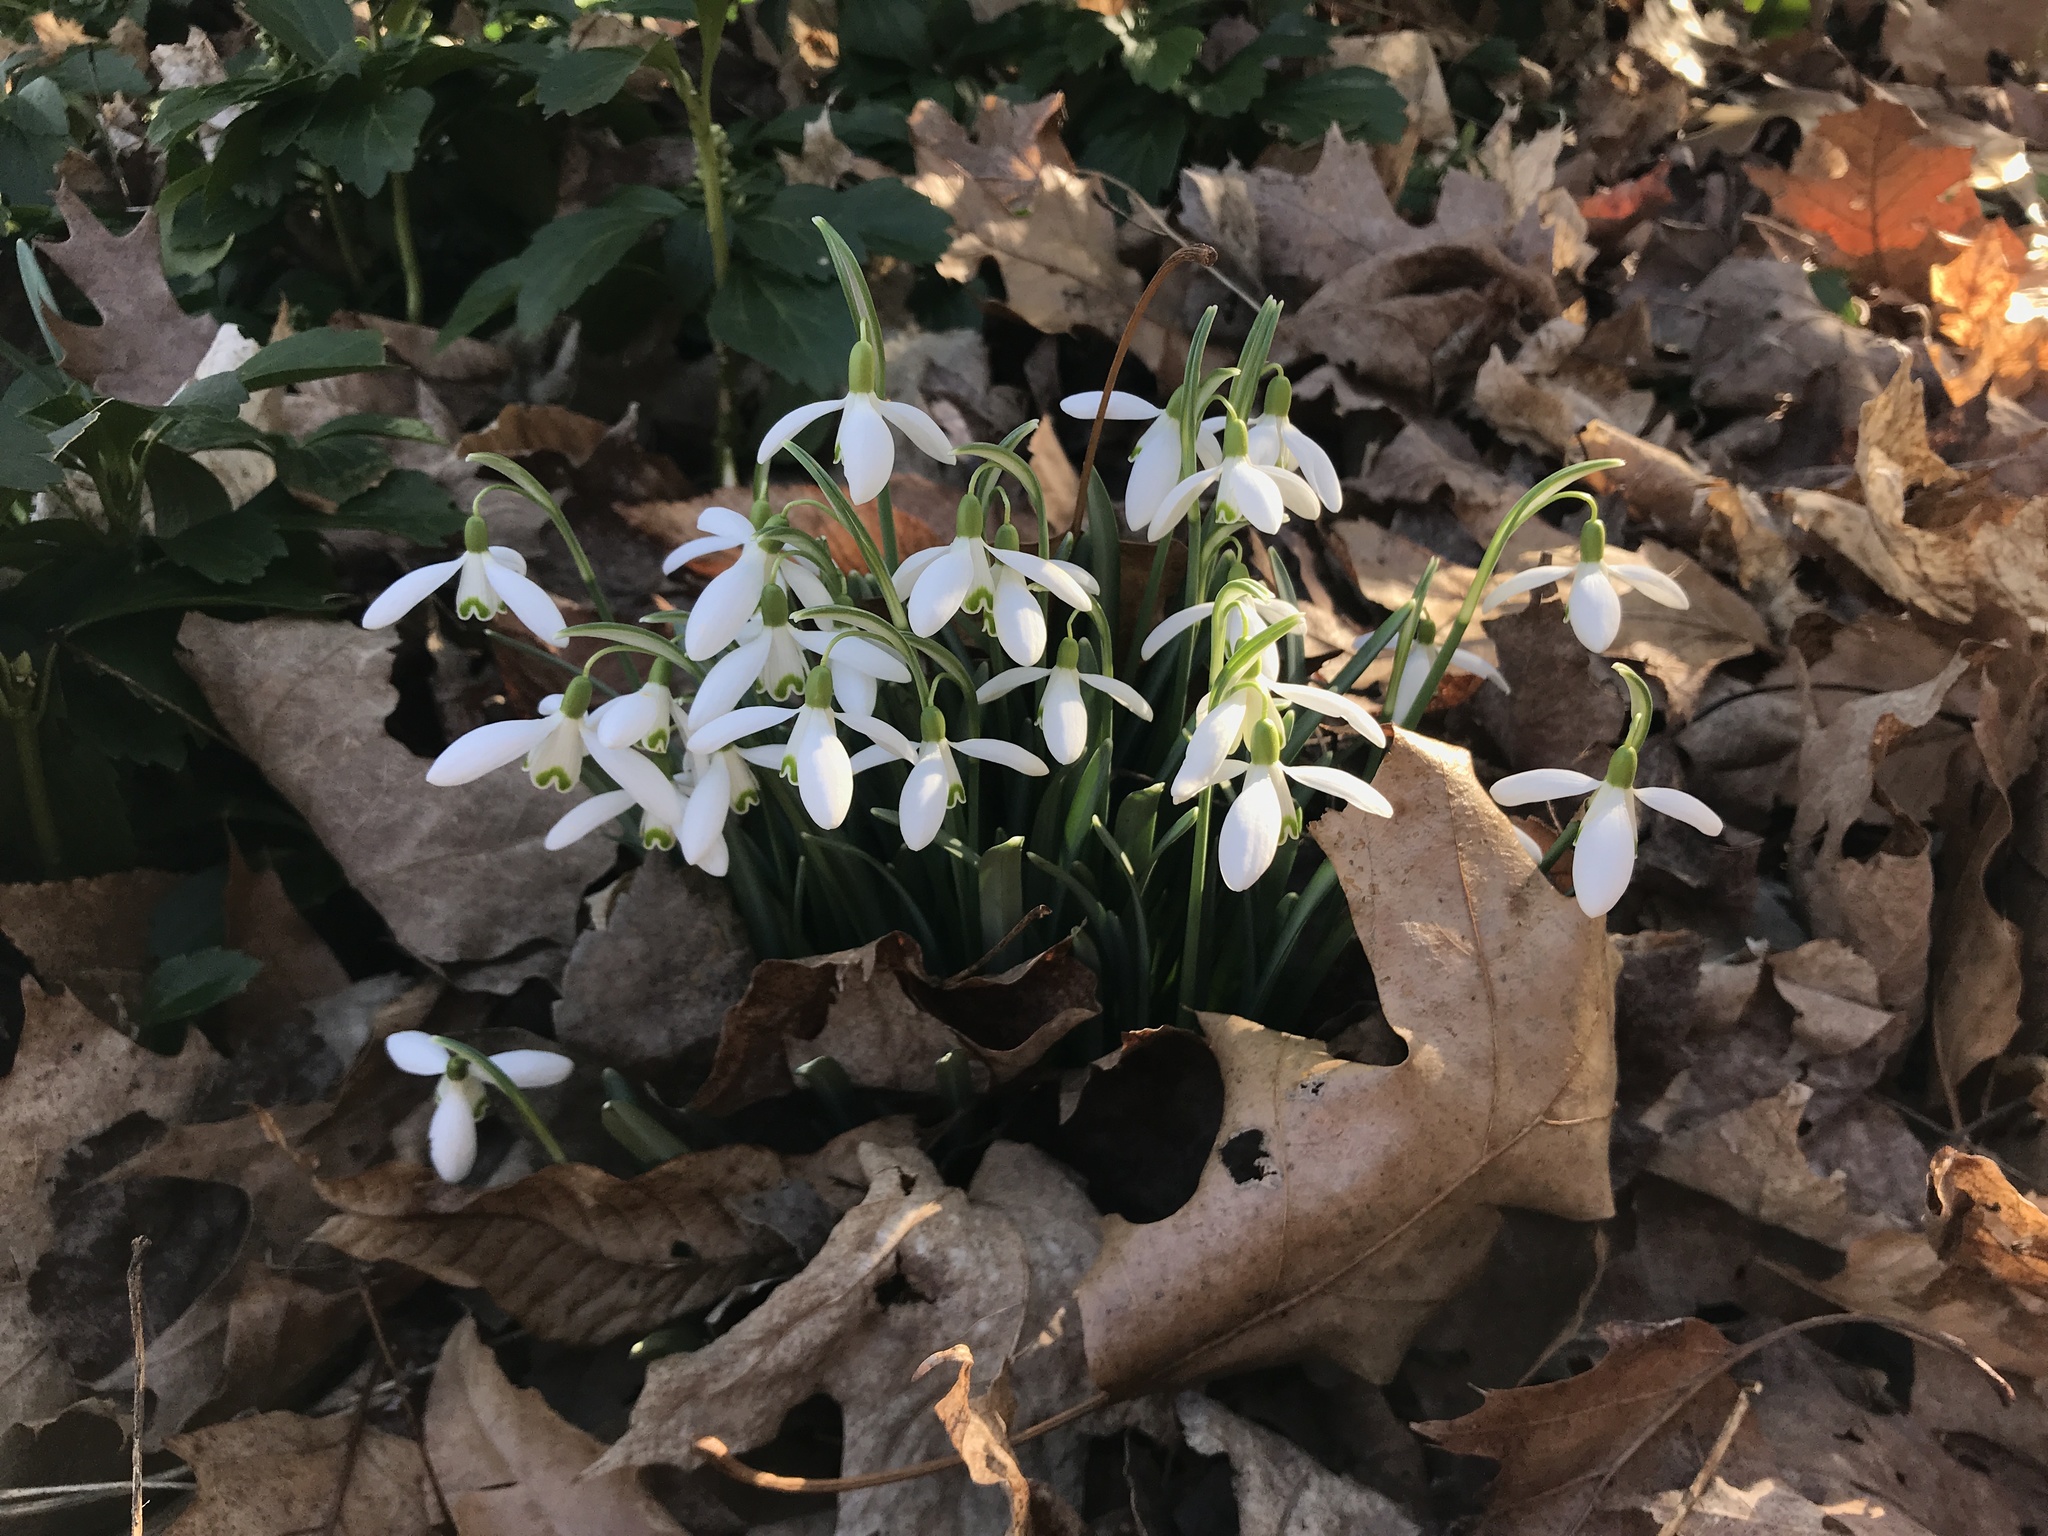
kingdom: Plantae
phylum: Tracheophyta
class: Liliopsida
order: Asparagales
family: Amaryllidaceae
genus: Galanthus
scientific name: Galanthus nivalis
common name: Snowdrop
